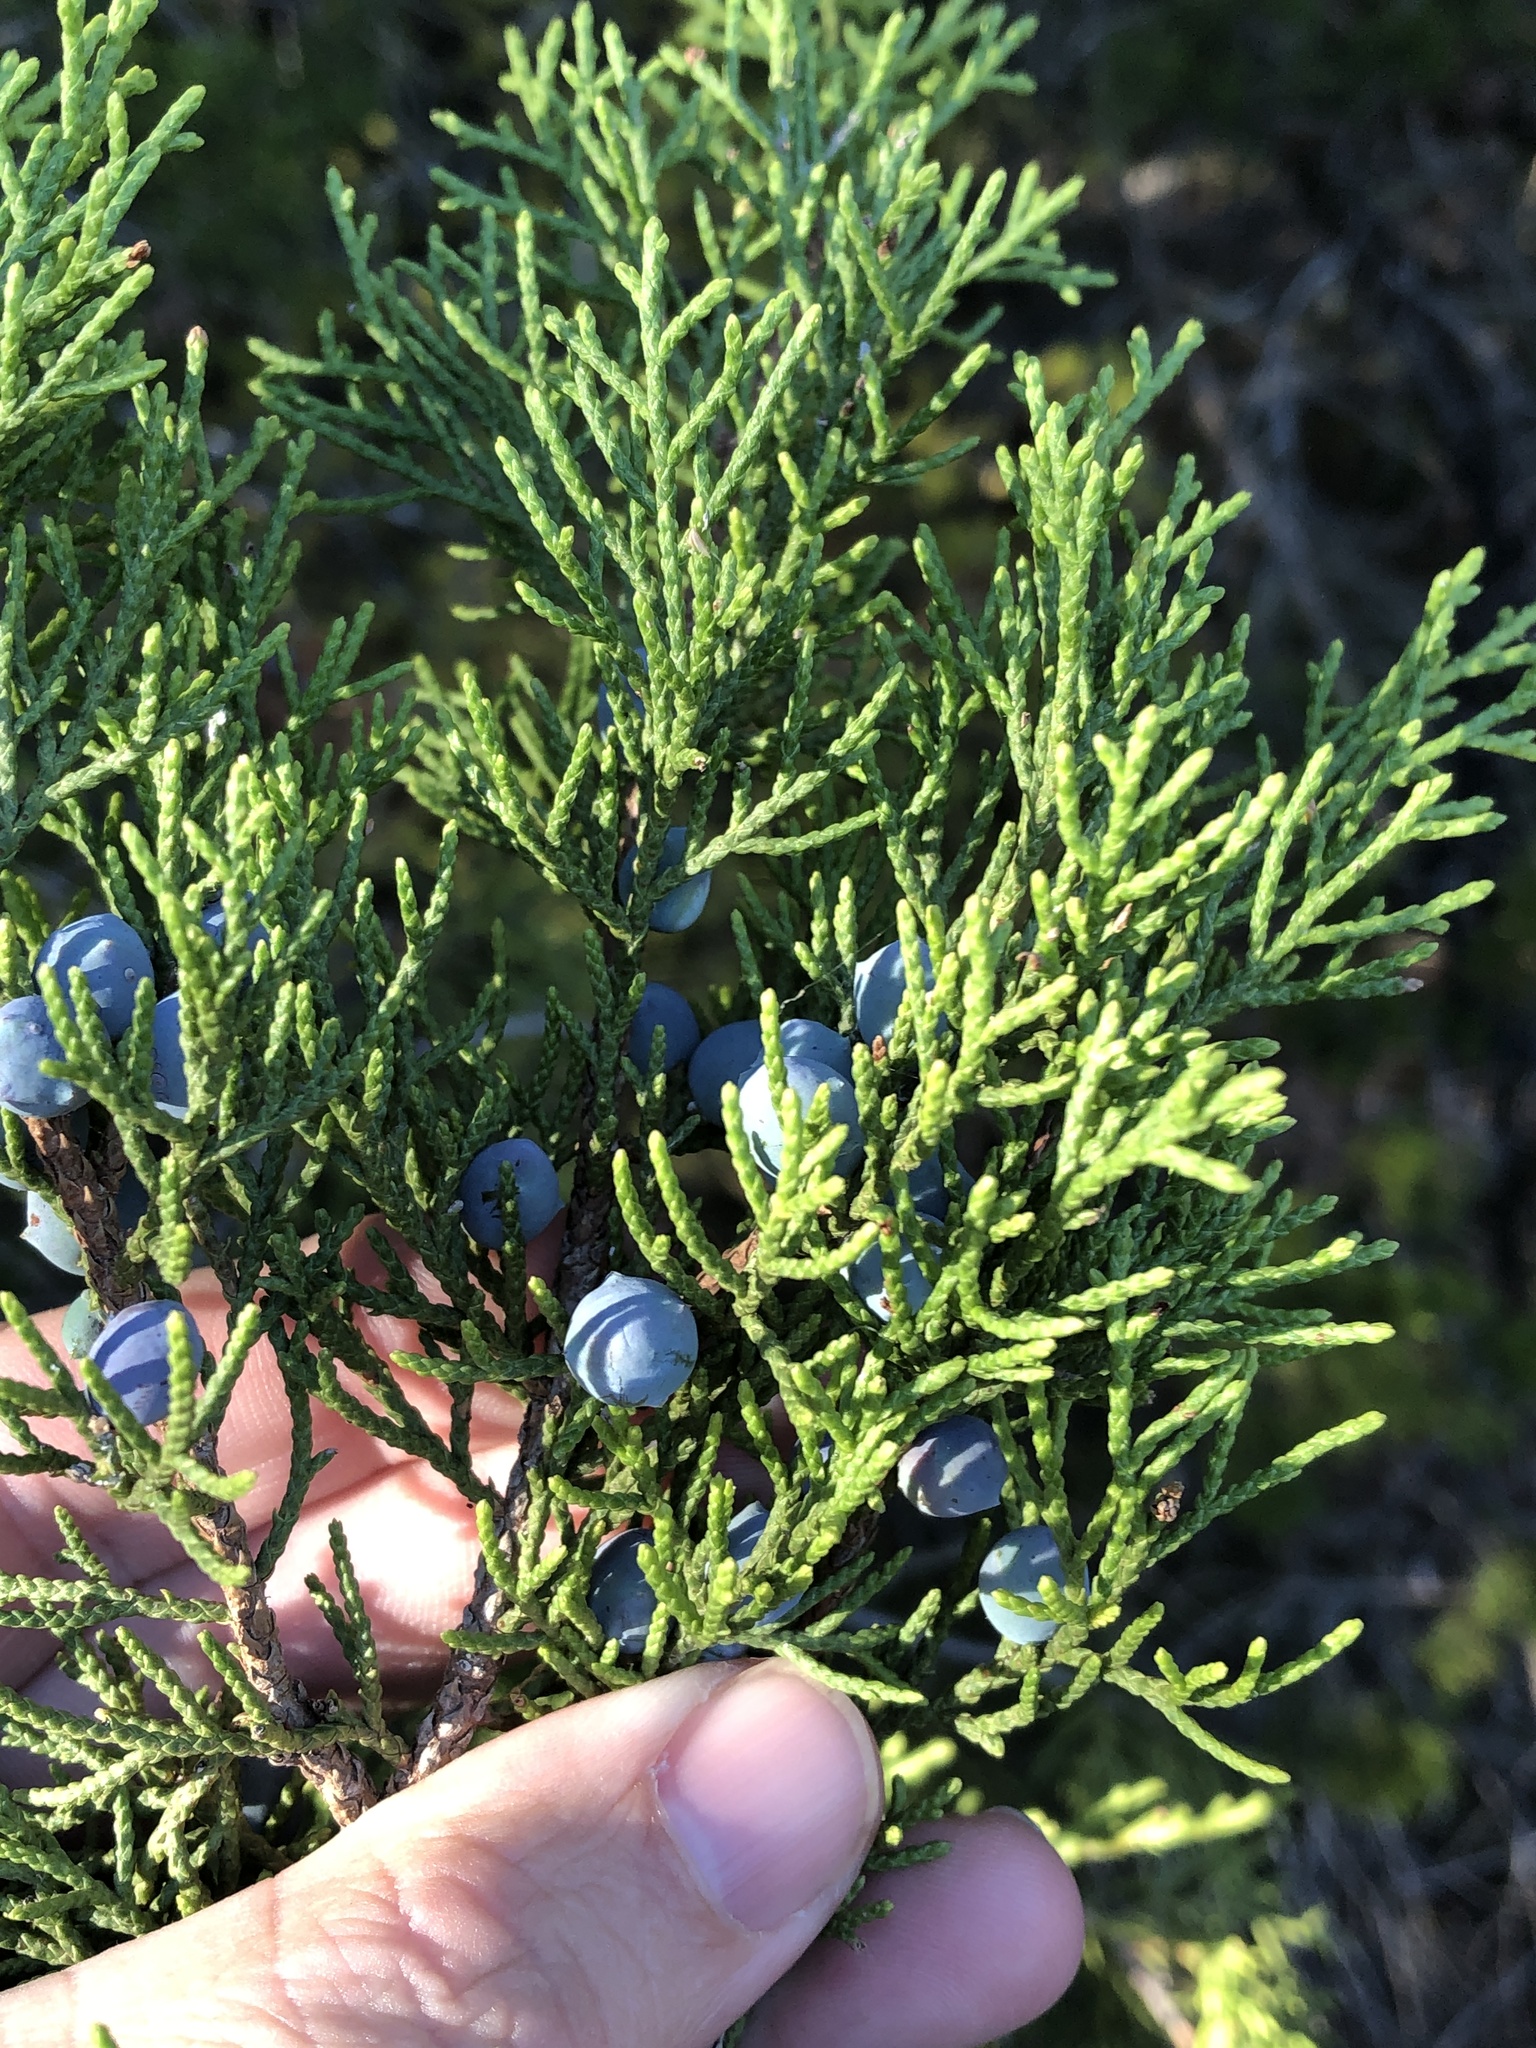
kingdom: Plantae
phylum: Tracheophyta
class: Pinopsida
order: Pinales
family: Cupressaceae
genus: Juniperus
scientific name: Juniperus ashei
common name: Mexican juniper
